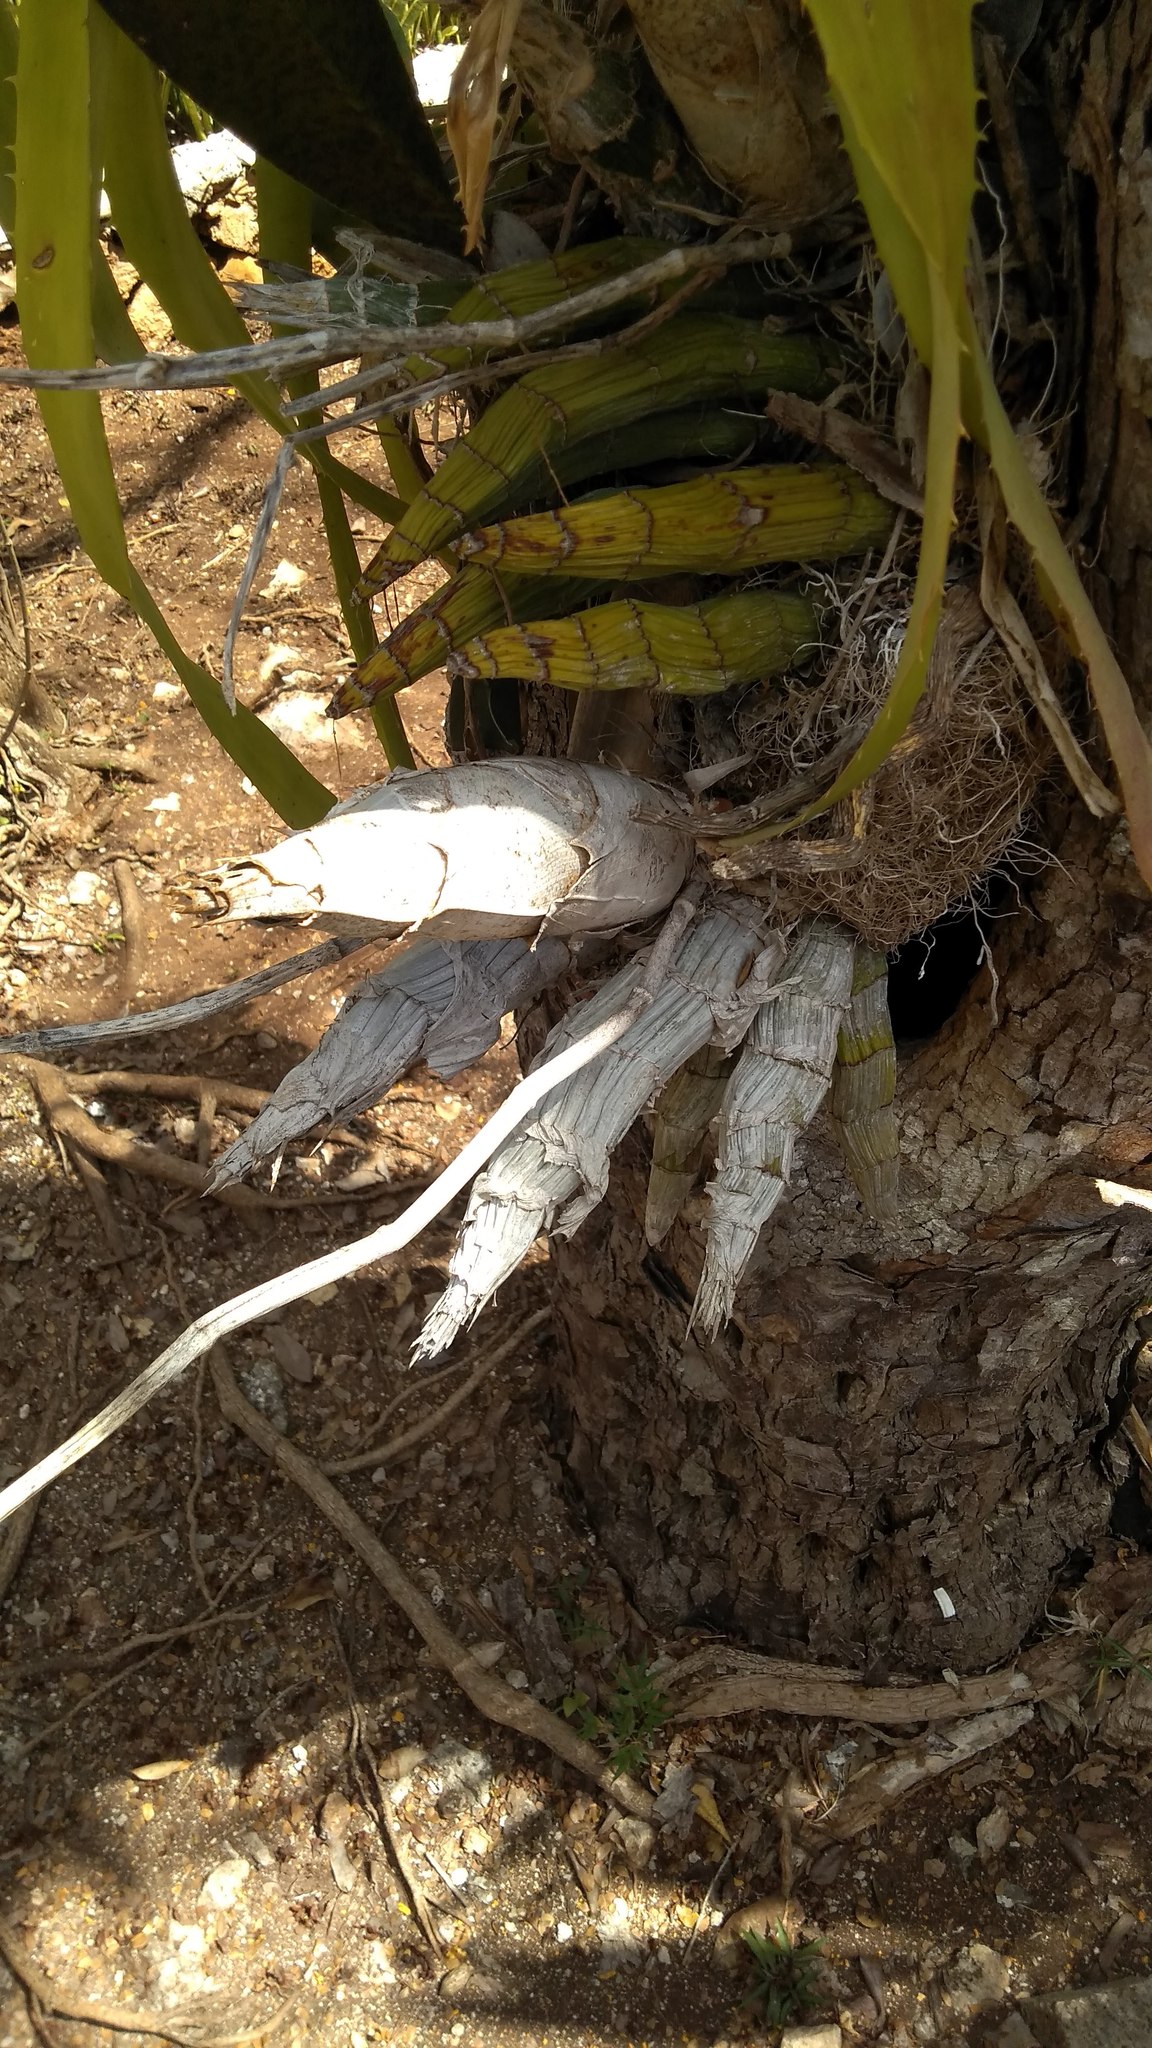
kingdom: Plantae
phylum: Tracheophyta
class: Liliopsida
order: Asparagales
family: Orchidaceae
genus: Catasetum
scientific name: Catasetum integerrimum
